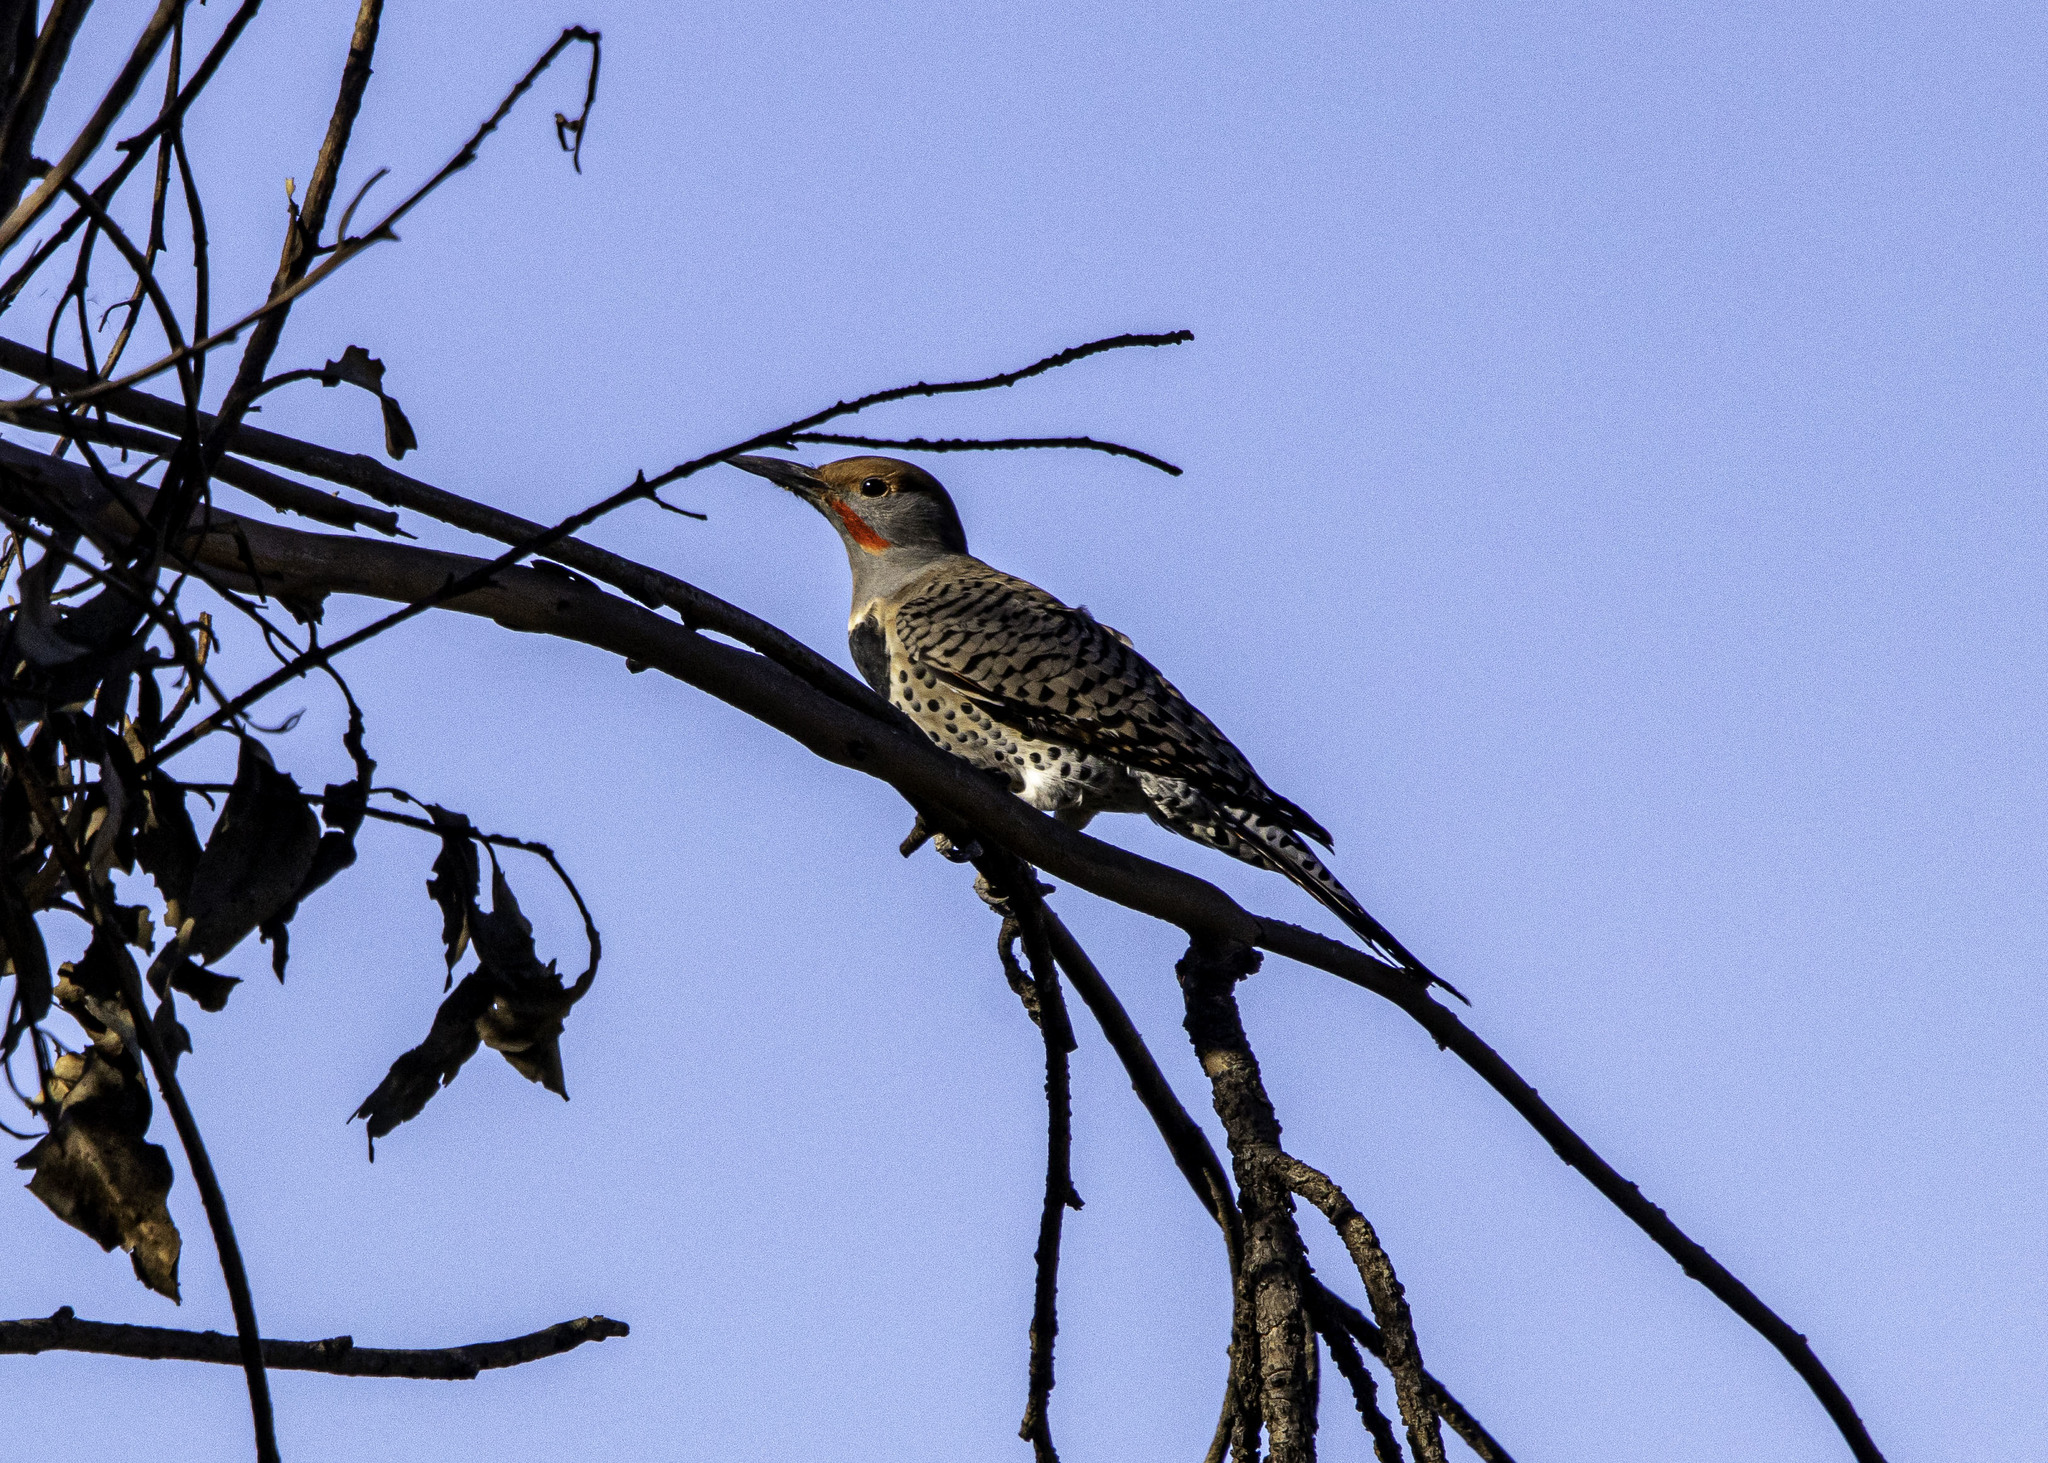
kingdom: Animalia
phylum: Chordata
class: Aves
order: Piciformes
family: Picidae
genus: Colaptes
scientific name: Colaptes auratus
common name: Northern flicker
